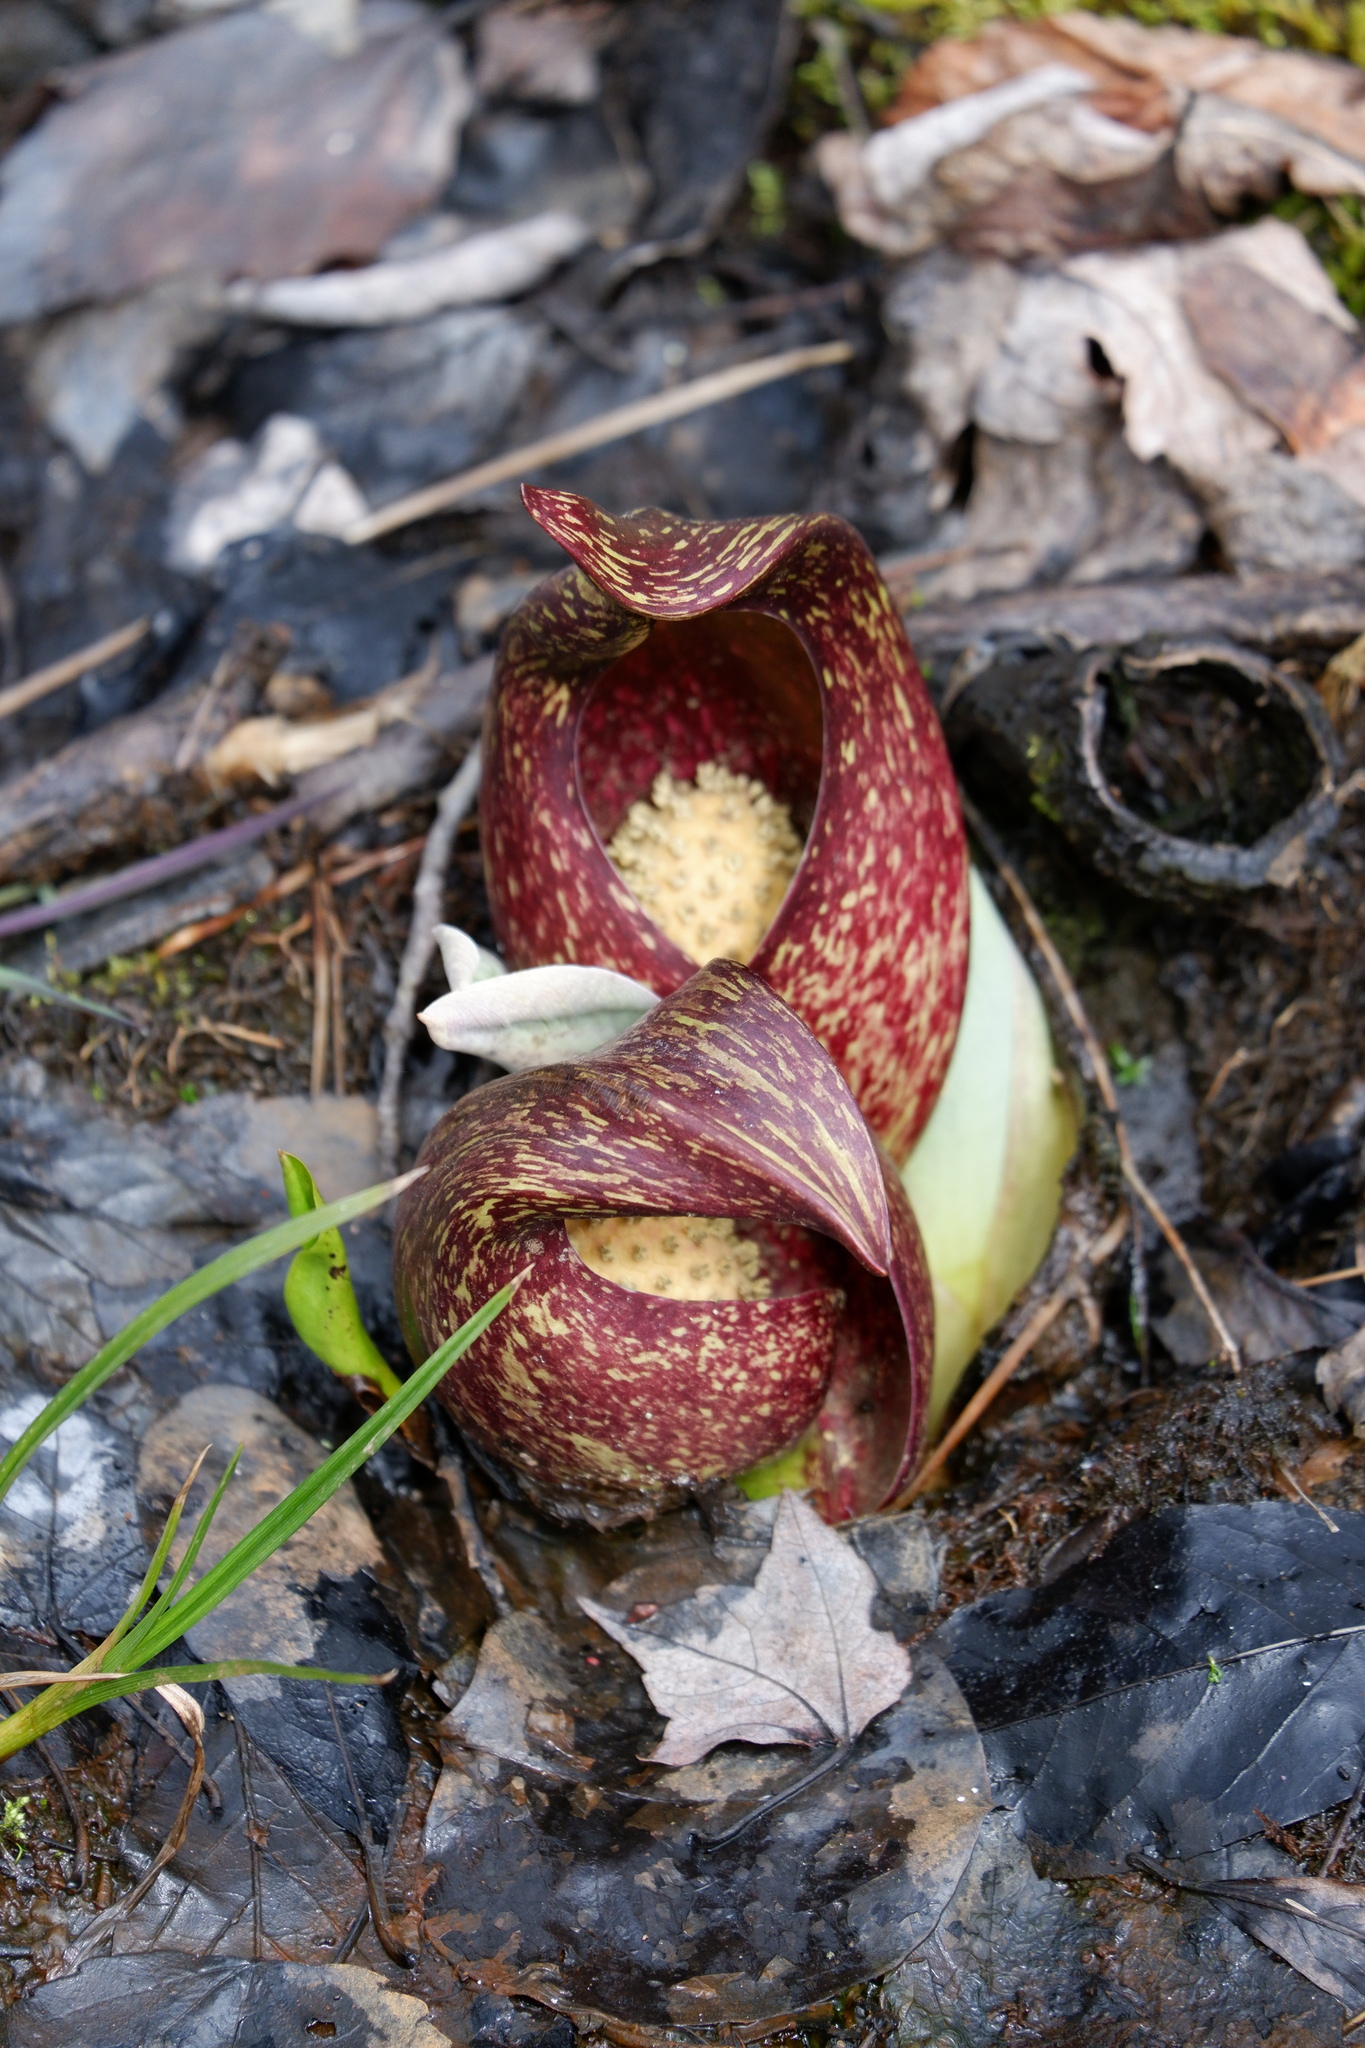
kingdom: Plantae
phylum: Tracheophyta
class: Liliopsida
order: Alismatales
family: Araceae
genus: Symplocarpus
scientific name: Symplocarpus foetidus
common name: Eastern skunk cabbage
